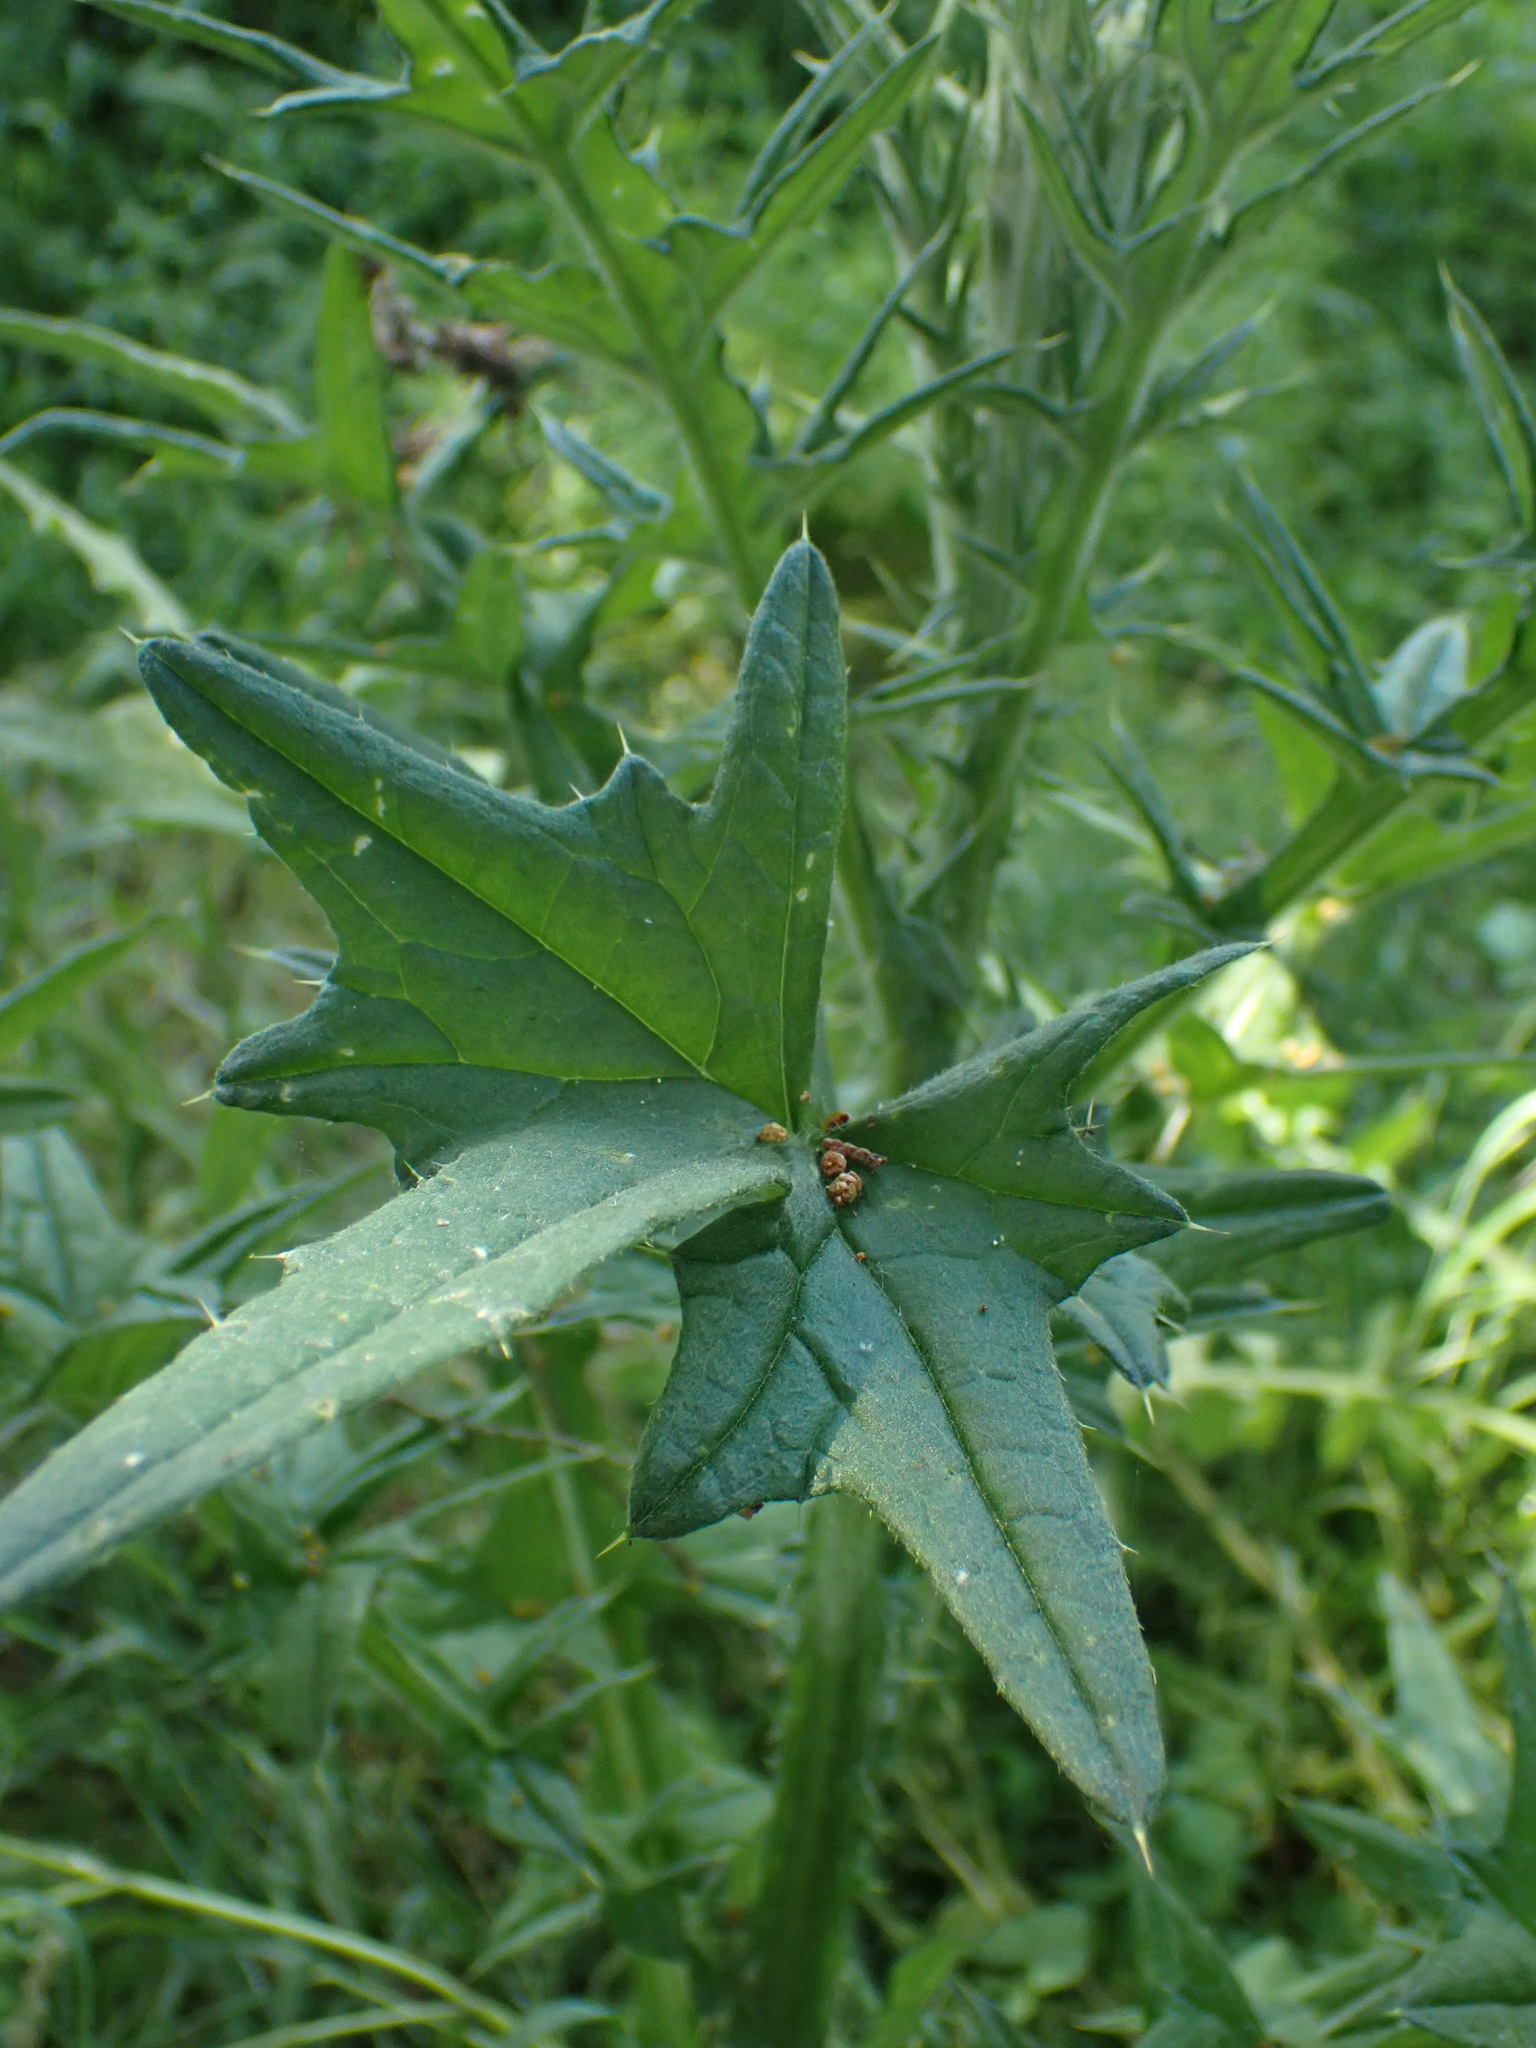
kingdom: Plantae
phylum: Tracheophyta
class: Magnoliopsida
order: Asterales
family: Asteraceae
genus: Cirsium
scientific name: Cirsium vulgare
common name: Bull thistle
